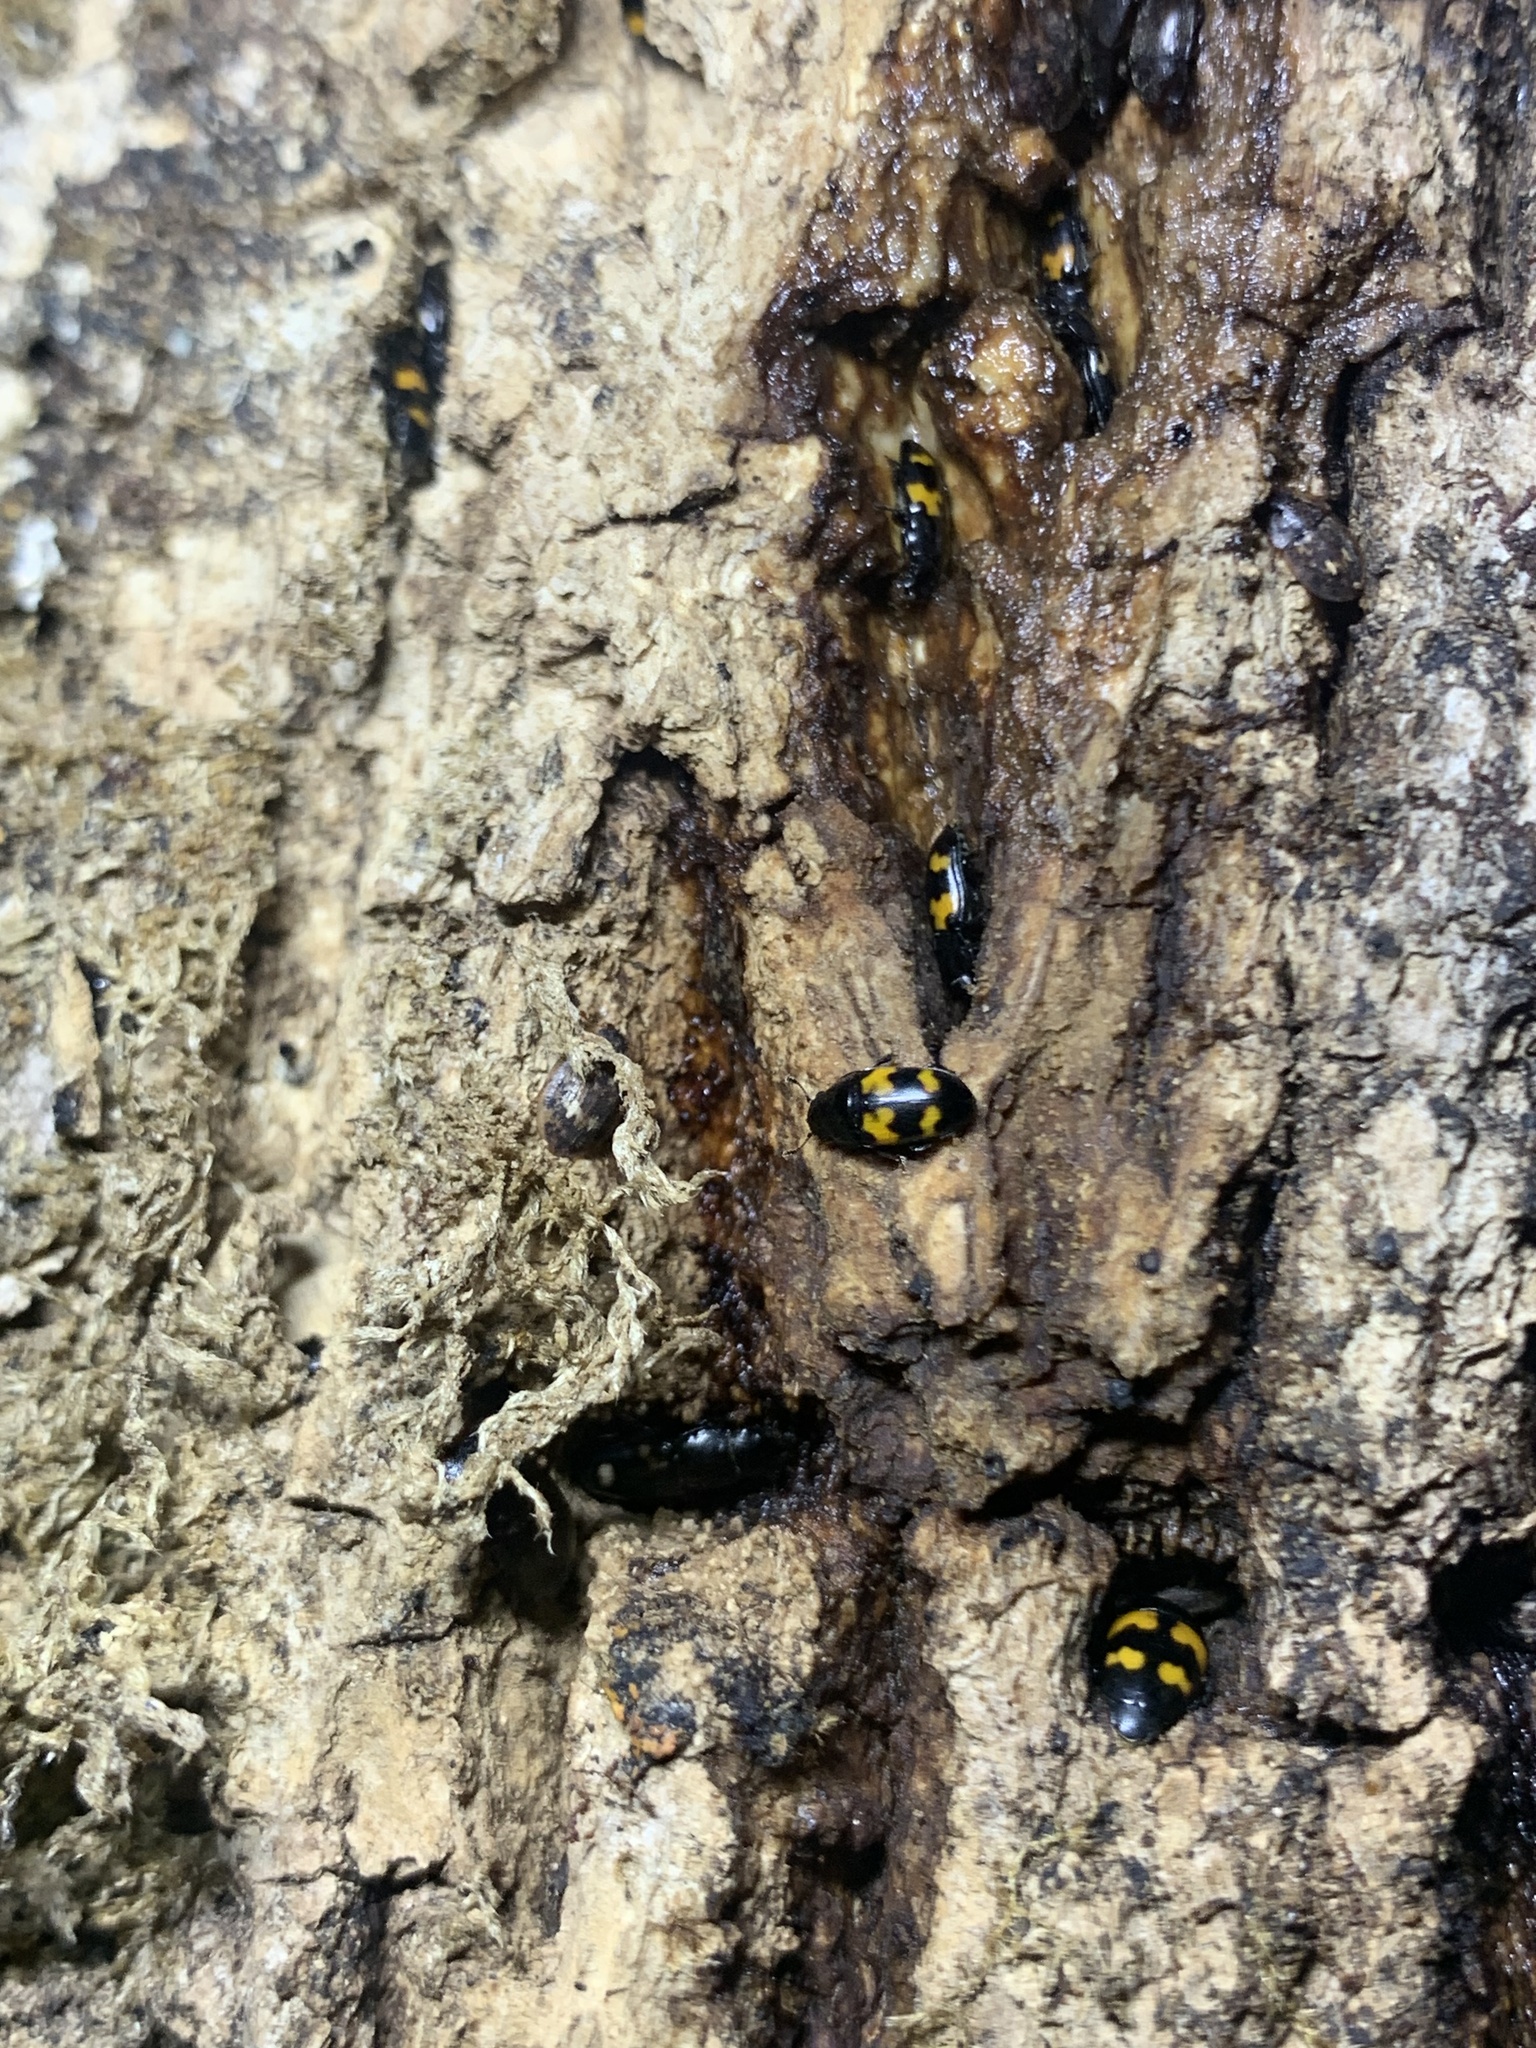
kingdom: Animalia
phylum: Arthropoda
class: Insecta
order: Coleoptera
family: Nitidulidae
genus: Glischrochilus
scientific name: Glischrochilus quadrisignatus
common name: Picnic beetle
